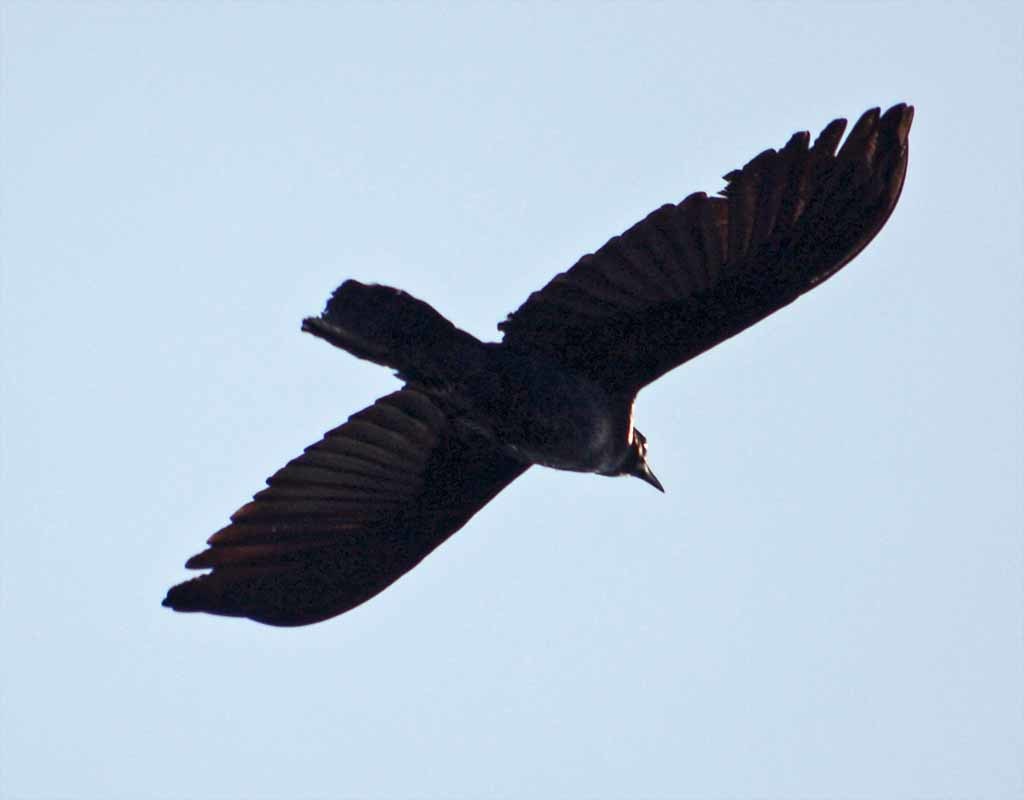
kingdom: Animalia
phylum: Chordata
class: Aves
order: Passeriformes
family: Corvidae
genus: Corvus
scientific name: Corvus corax
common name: Common raven
